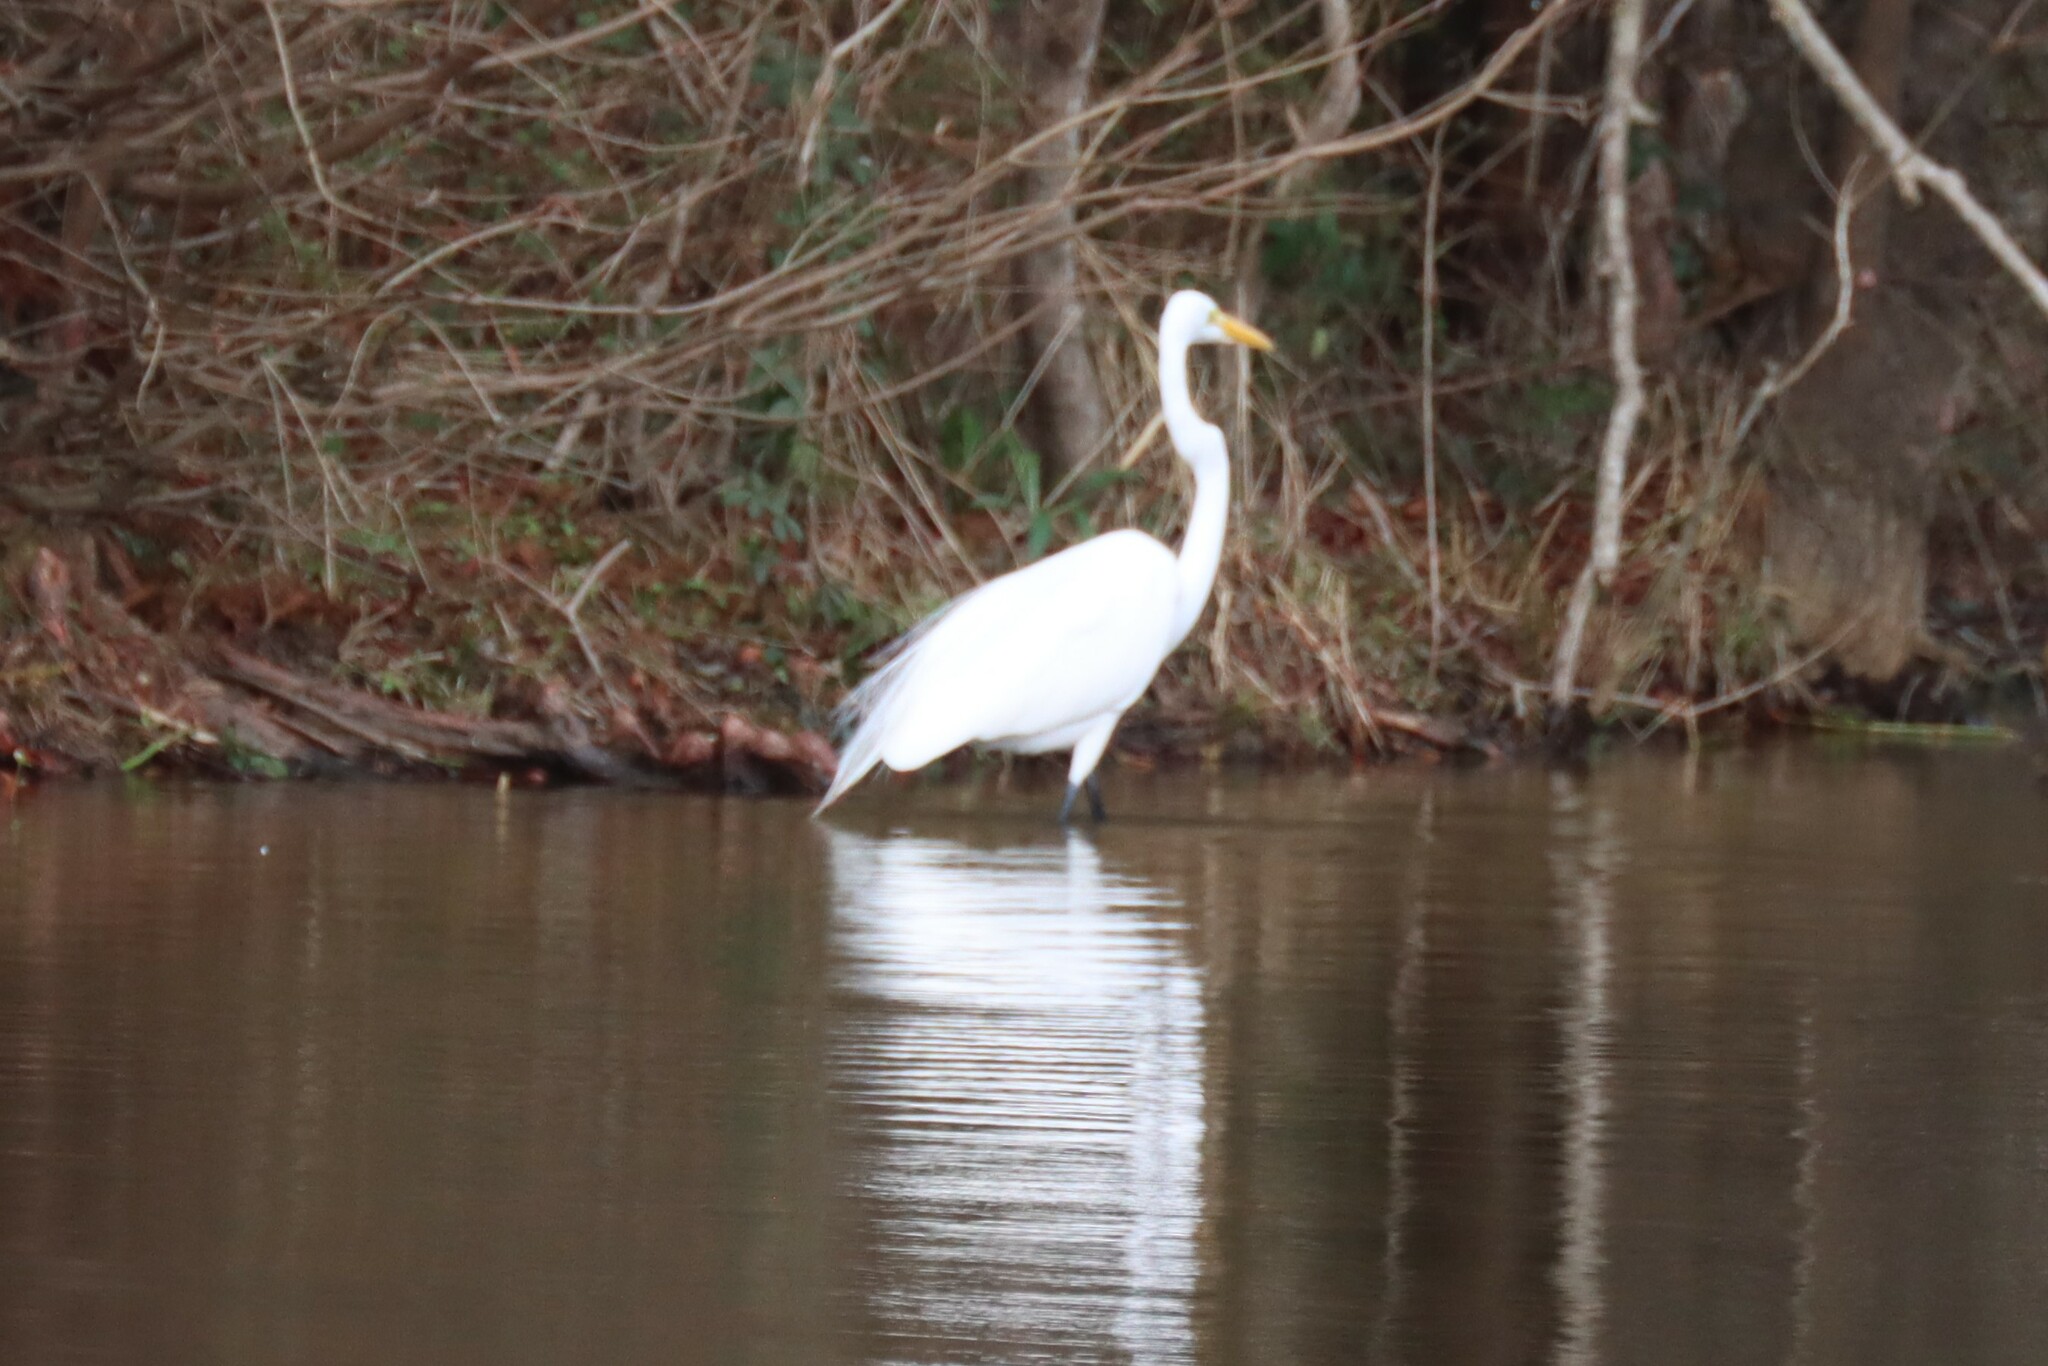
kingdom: Animalia
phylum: Chordata
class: Aves
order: Pelecaniformes
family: Ardeidae
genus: Ardea
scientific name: Ardea alba
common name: Great egret
